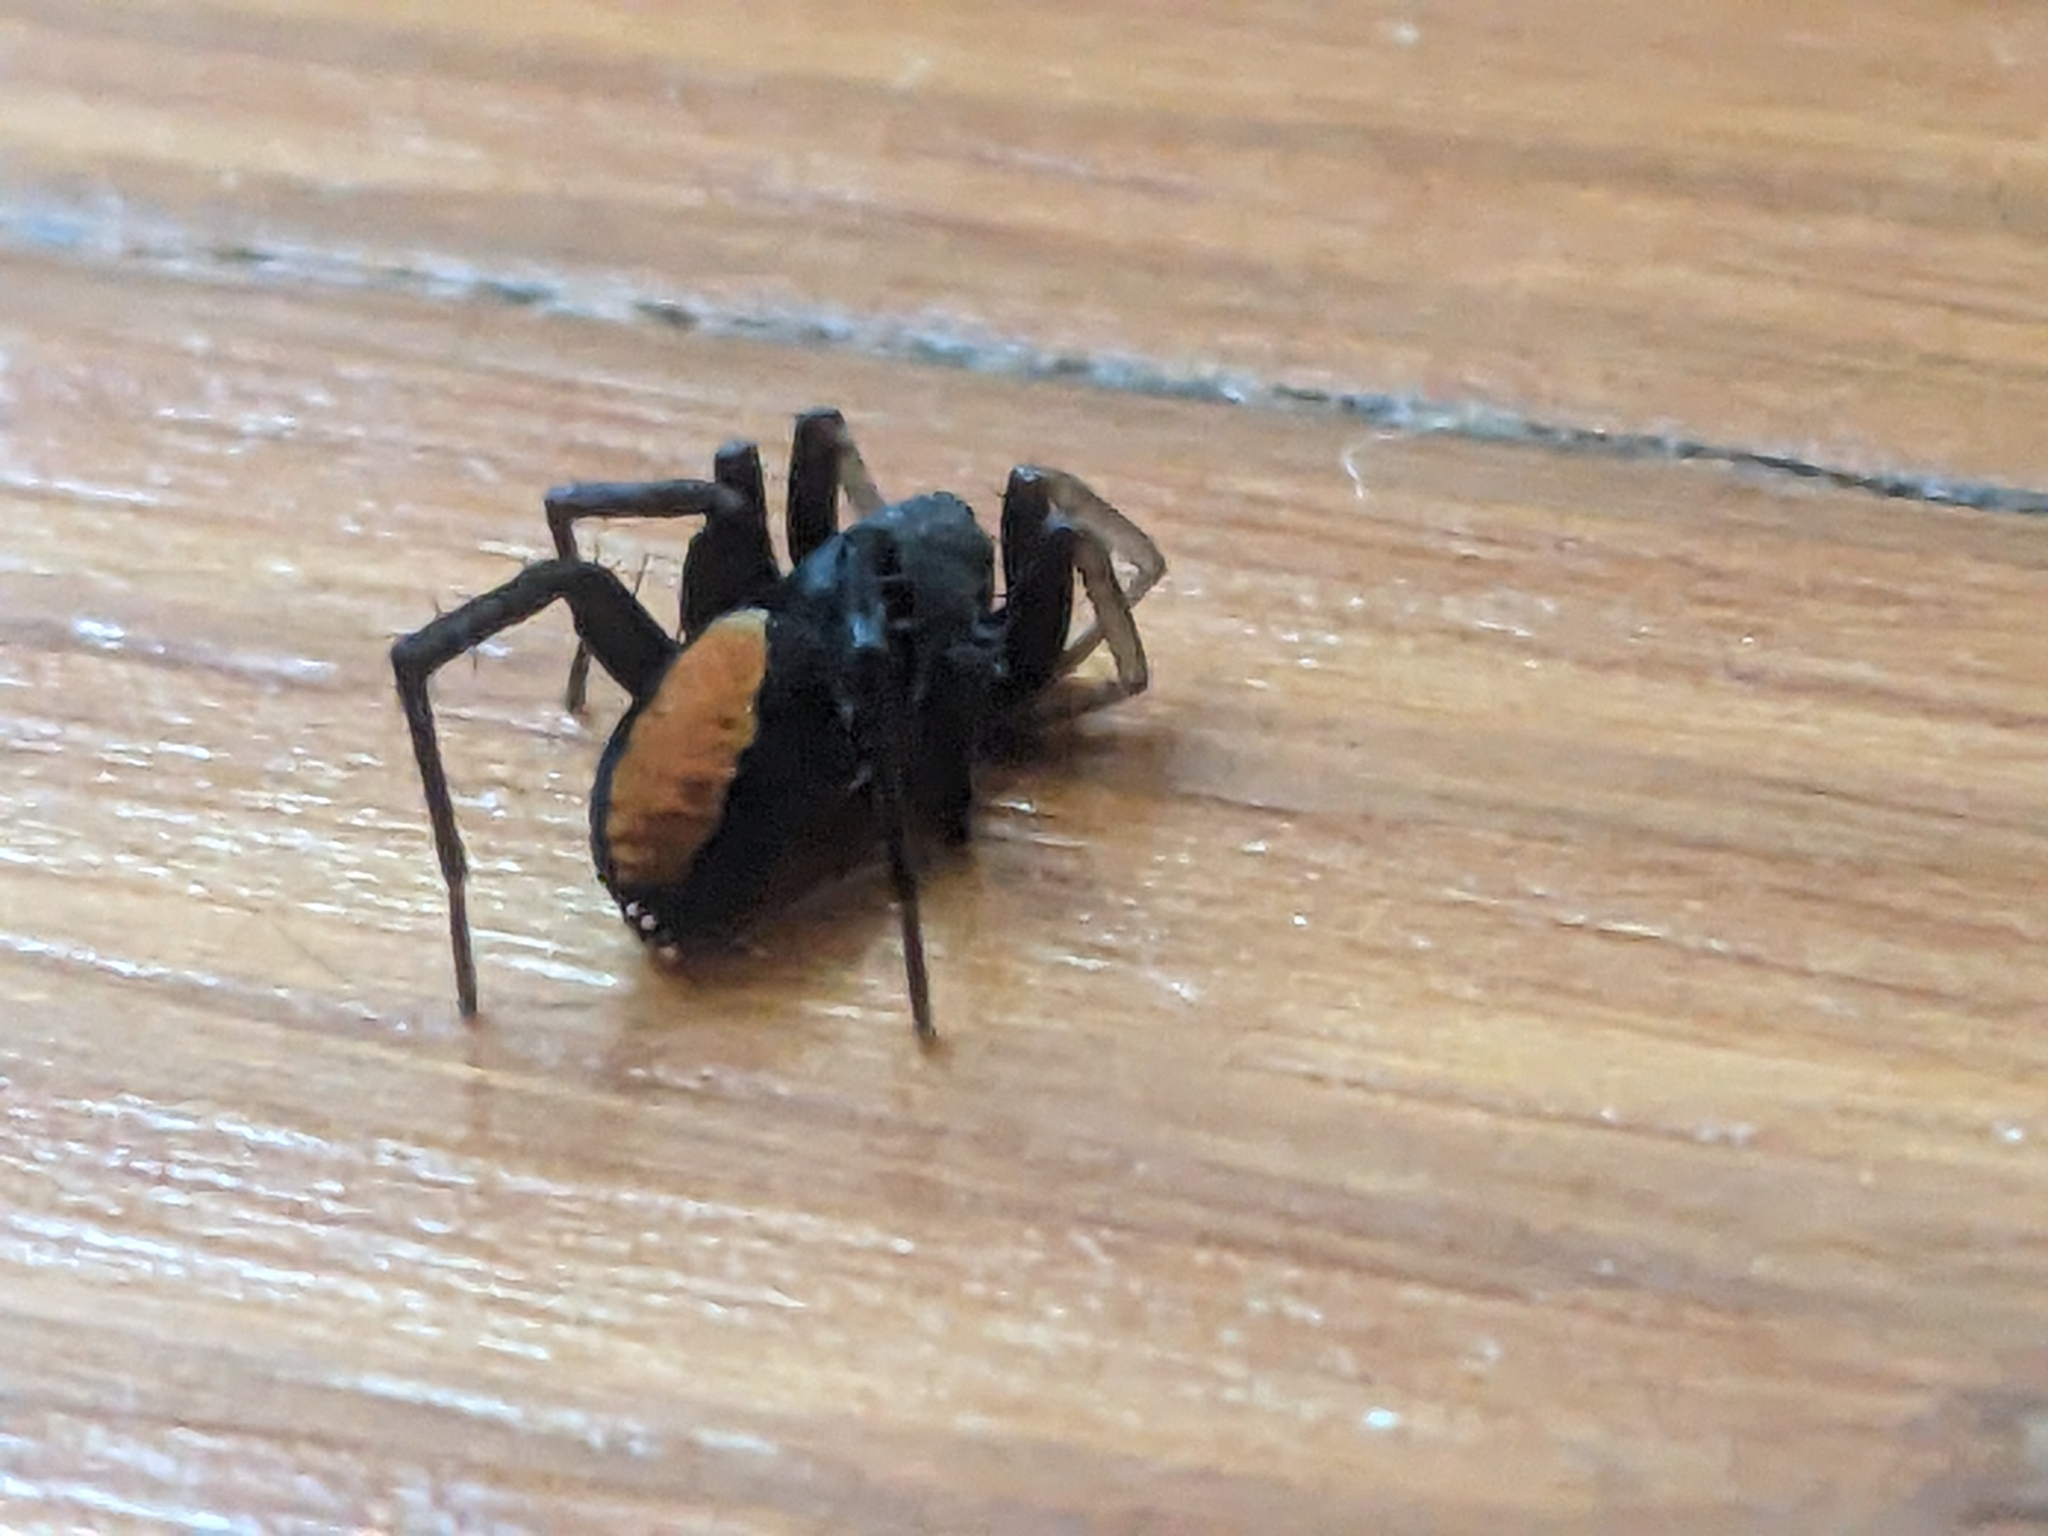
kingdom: Animalia
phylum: Arthropoda
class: Arachnida
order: Araneae
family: Corinnidae
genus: Castianeira
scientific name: Castianeira descripta
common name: Red-spotted ant-mimic sac spider
